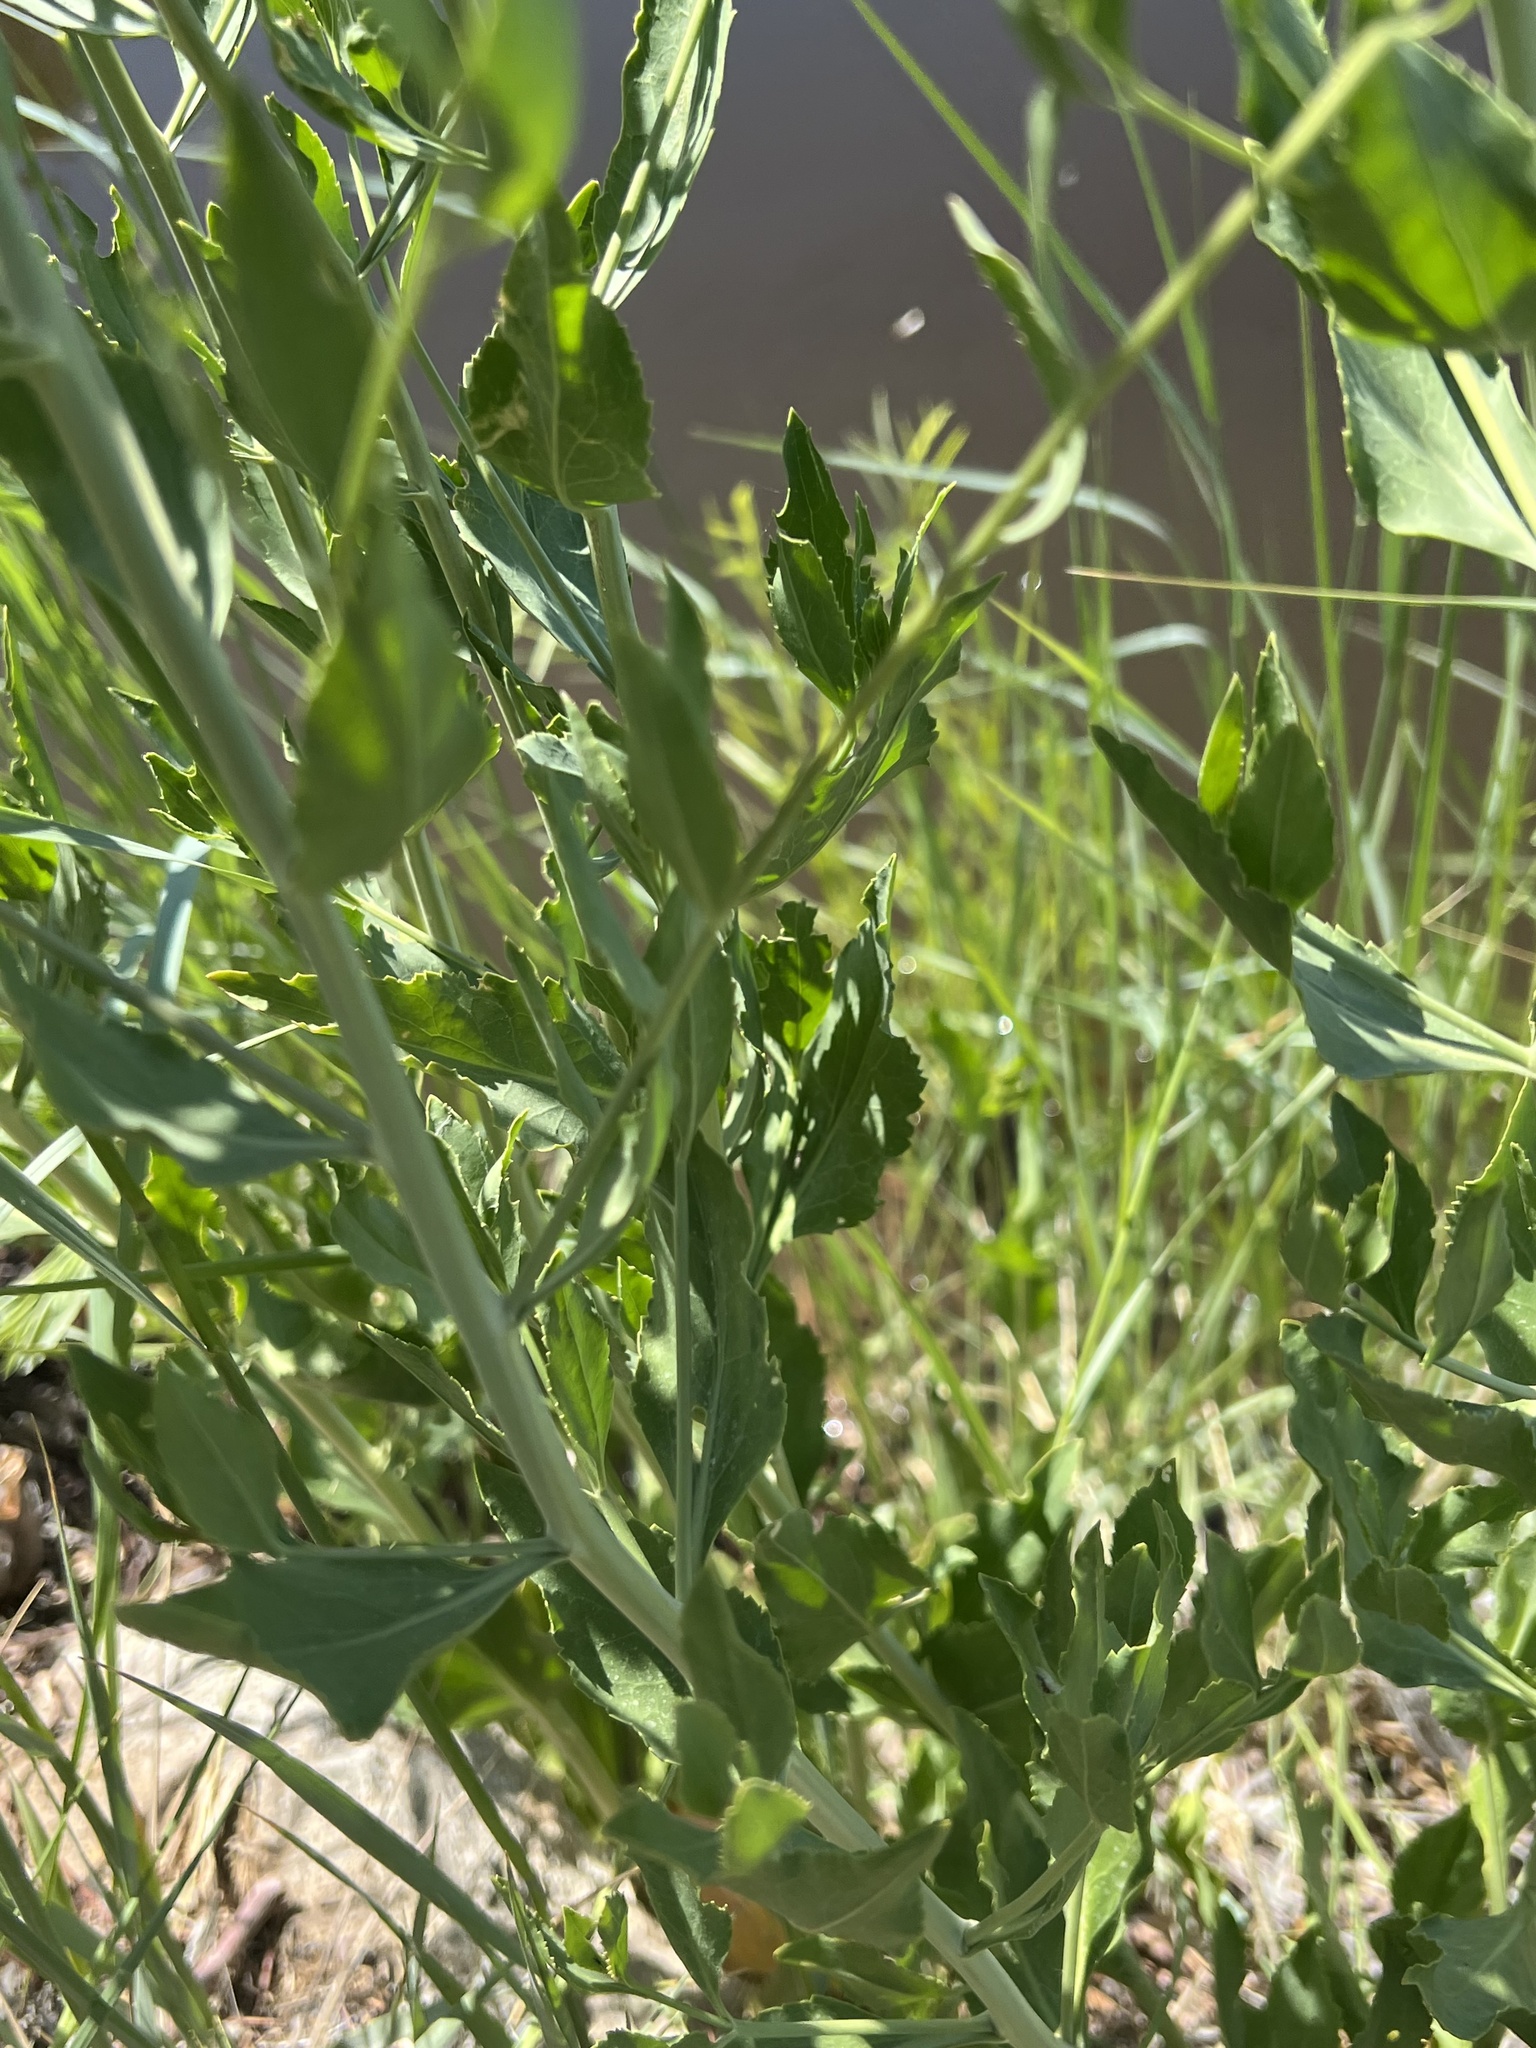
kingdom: Plantae
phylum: Tracheophyta
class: Magnoliopsida
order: Brassicales
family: Brassicaceae
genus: Lepidium
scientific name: Lepidium latifolium
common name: Dittander
